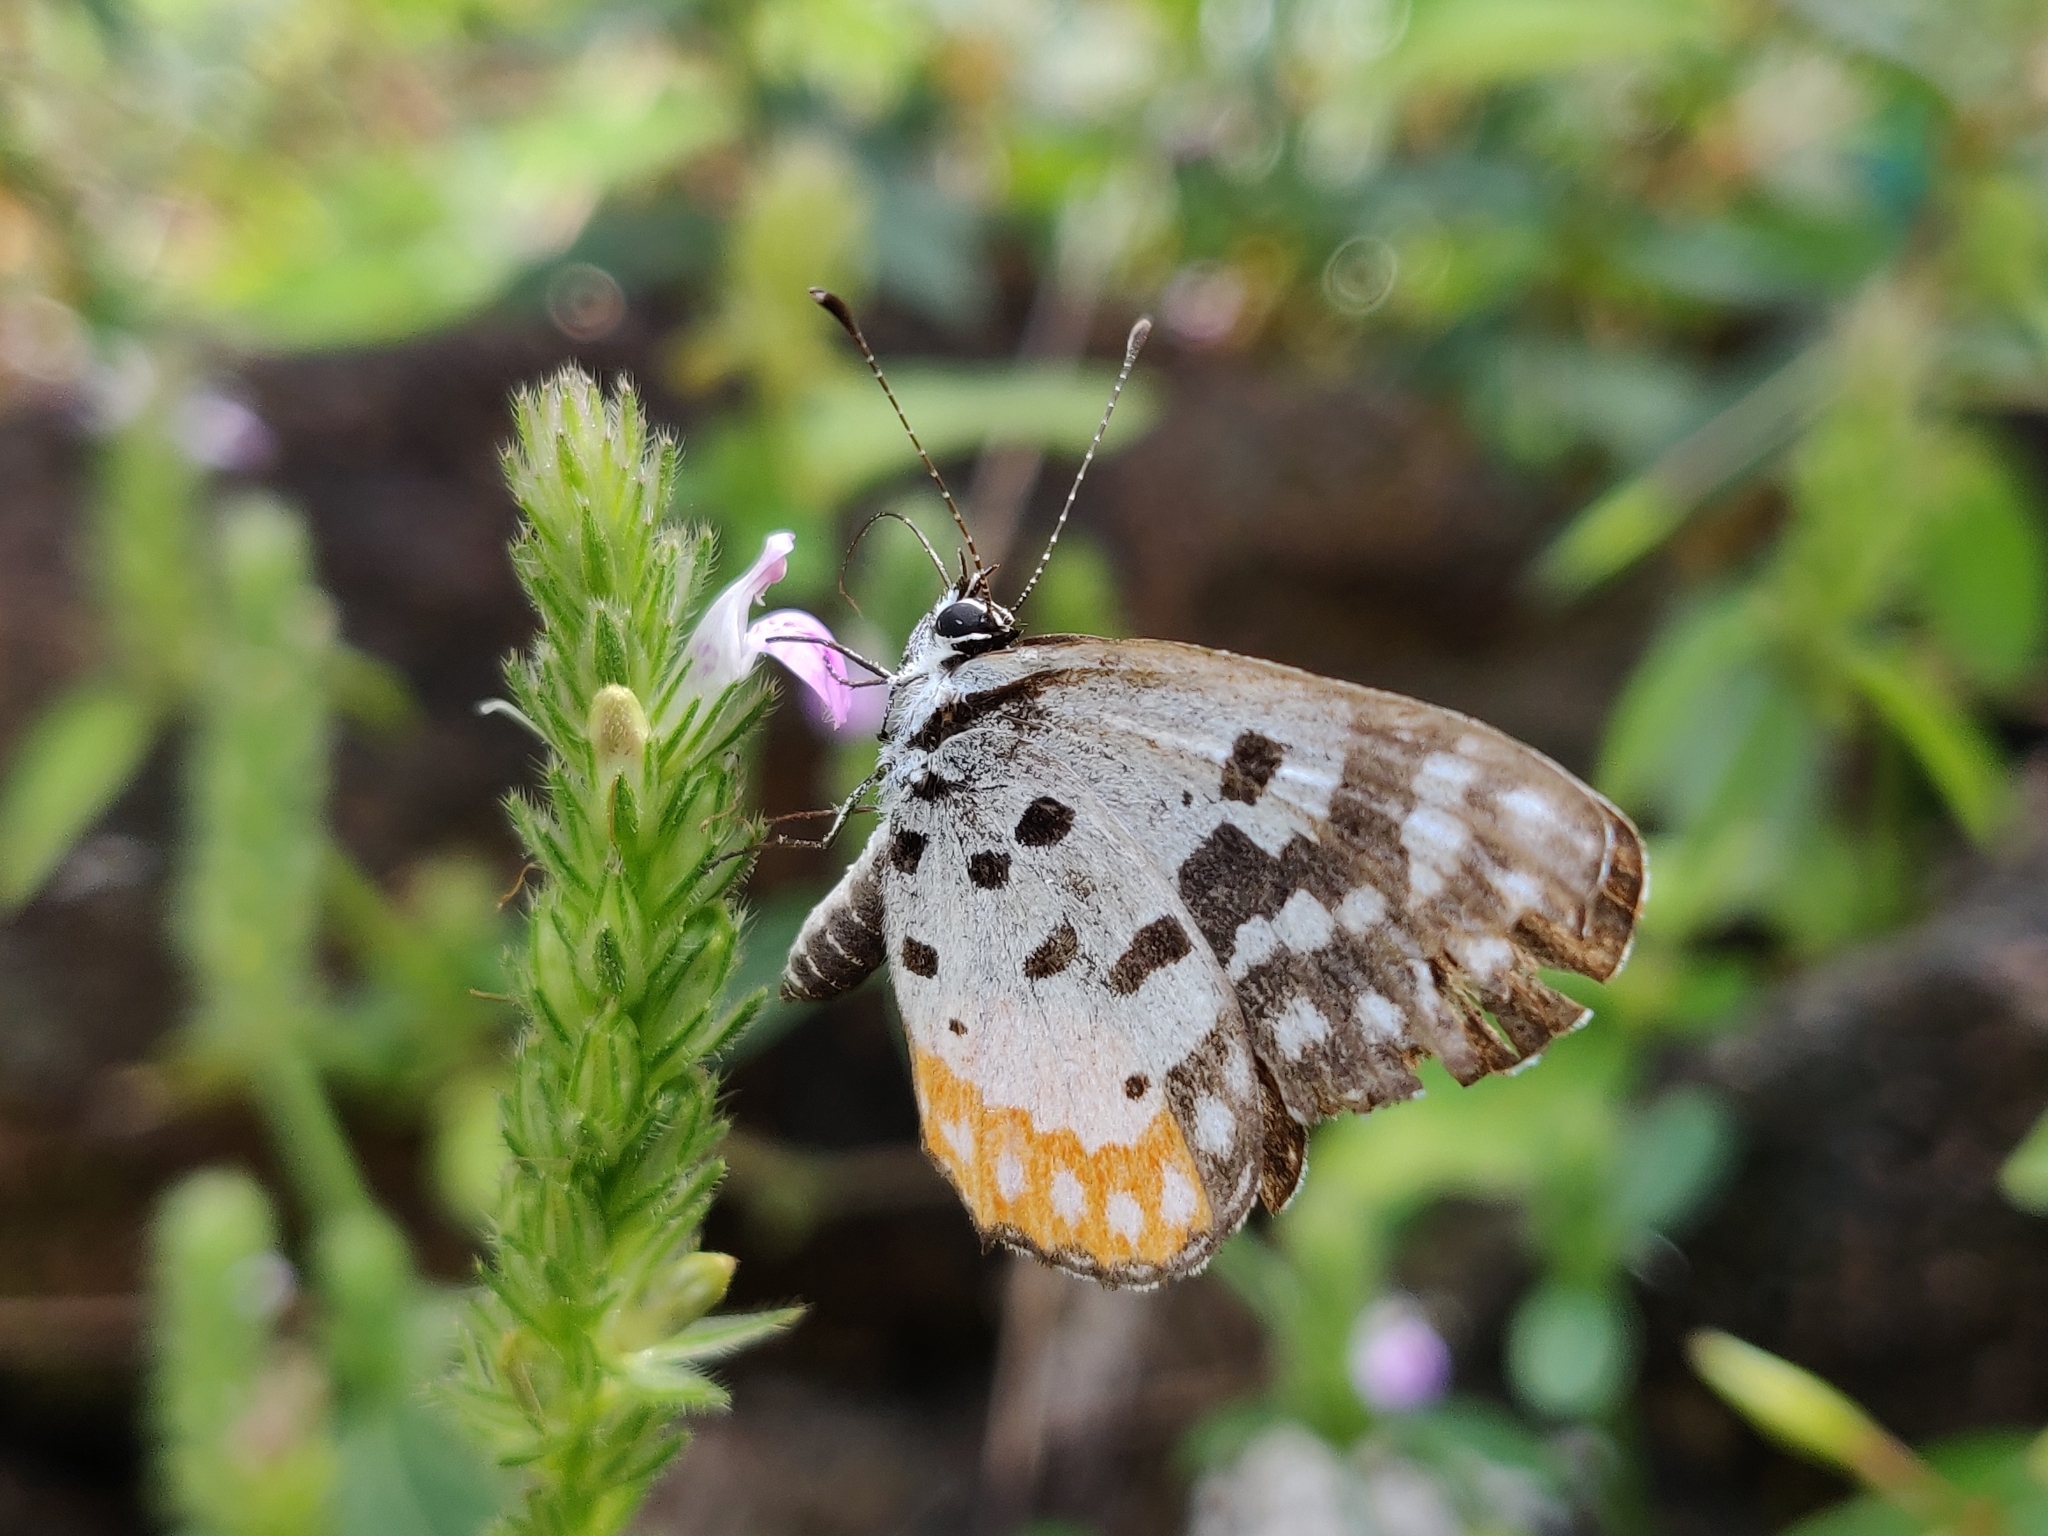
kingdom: Animalia
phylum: Arthropoda
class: Insecta
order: Lepidoptera
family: Lycaenidae
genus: Talicada
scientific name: Talicada nyseus
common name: Red pierrot
